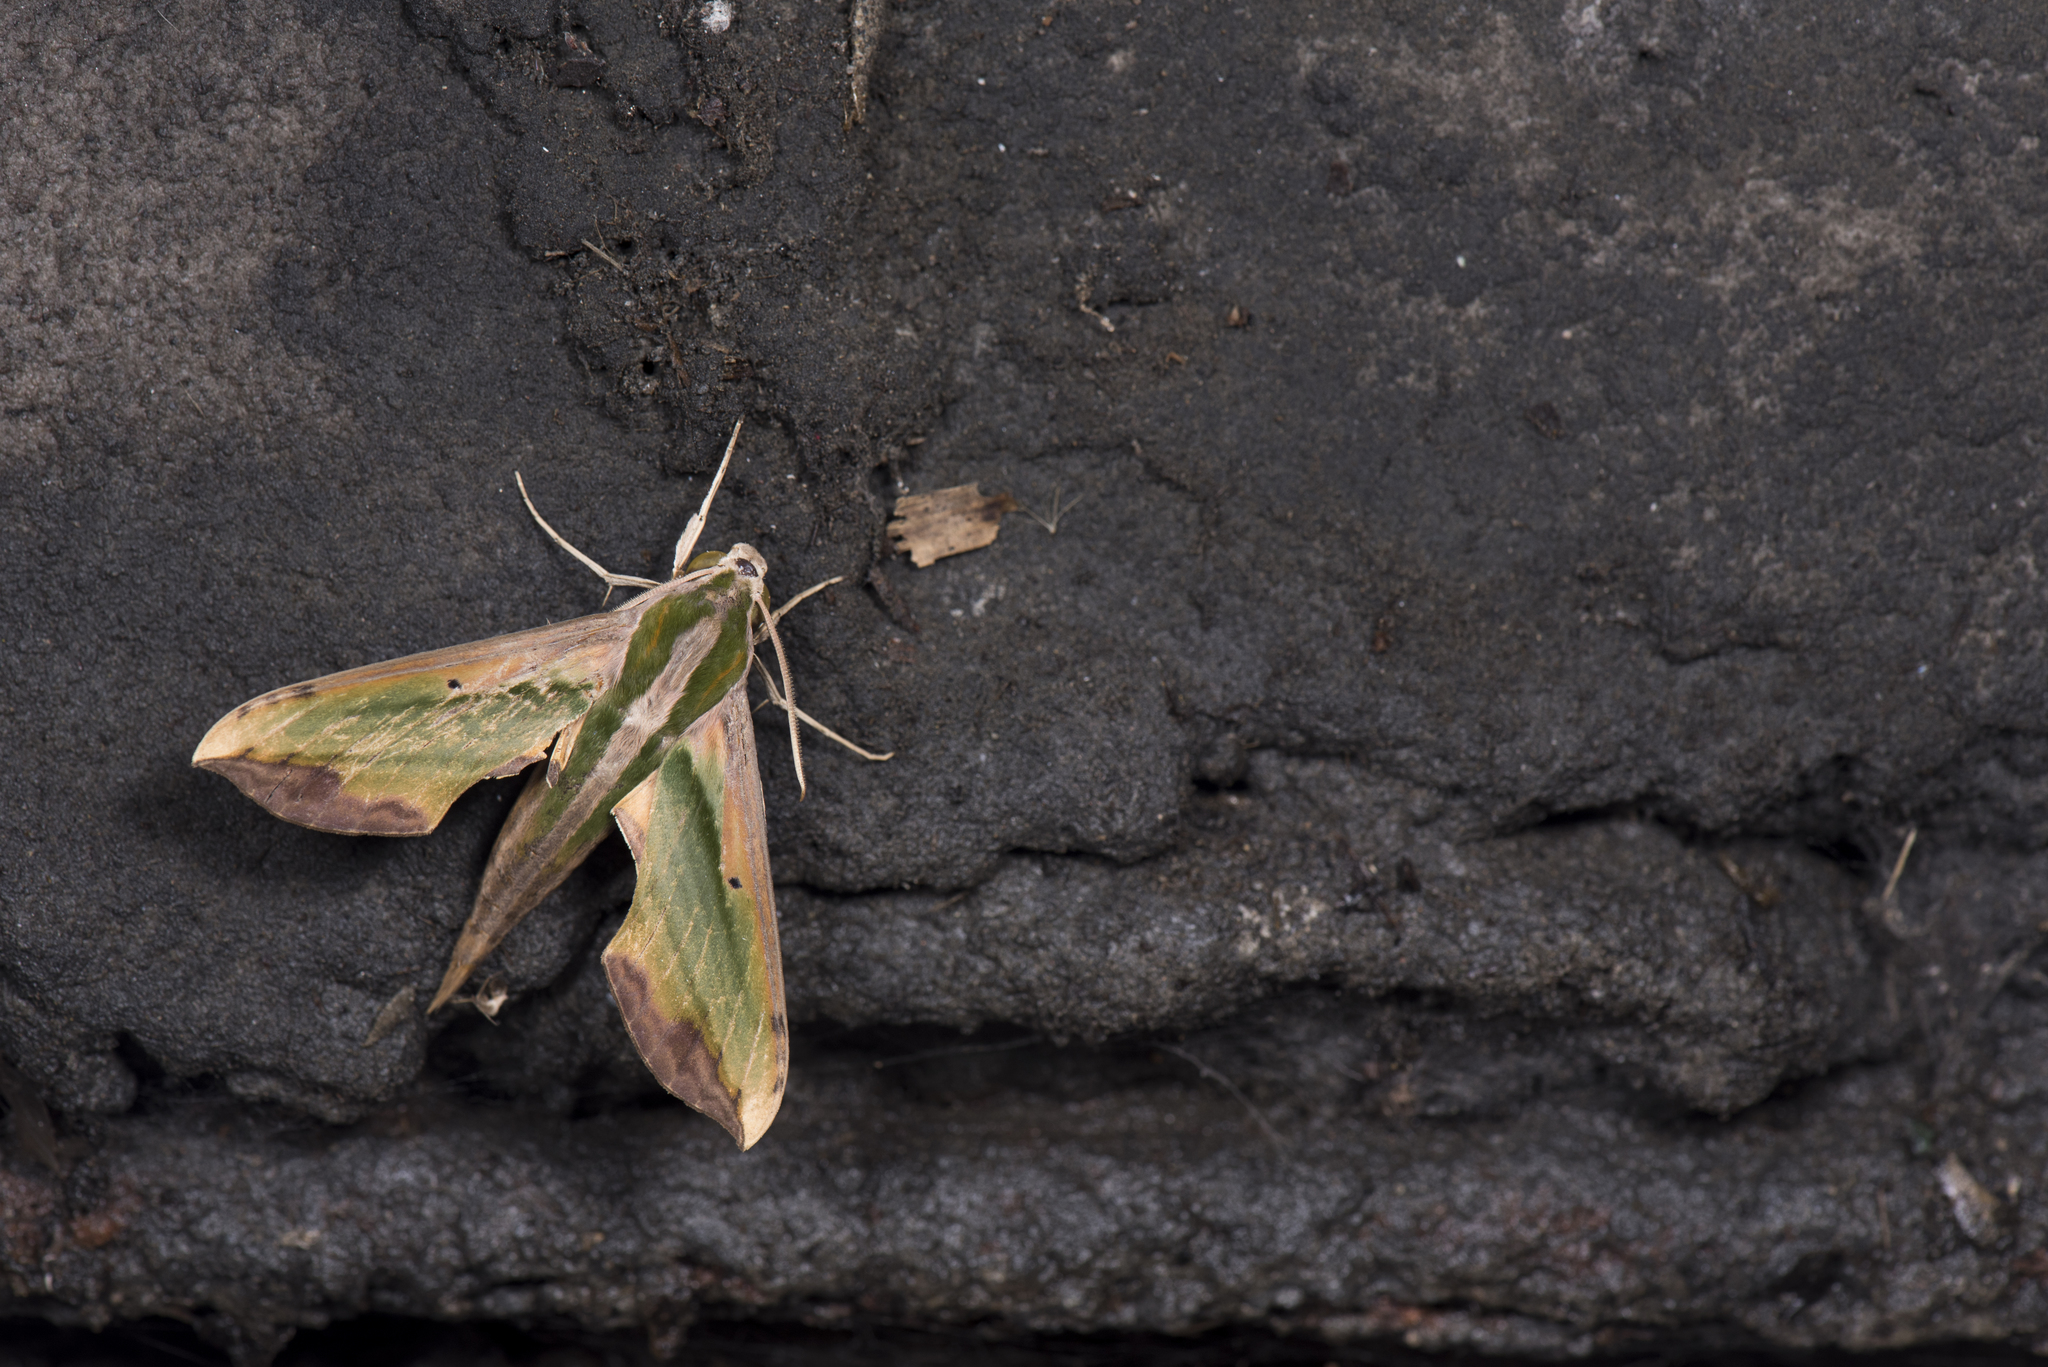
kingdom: Animalia
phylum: Arthropoda
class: Insecta
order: Lepidoptera
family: Sphingidae
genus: Pergesa
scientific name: Pergesa acteus
